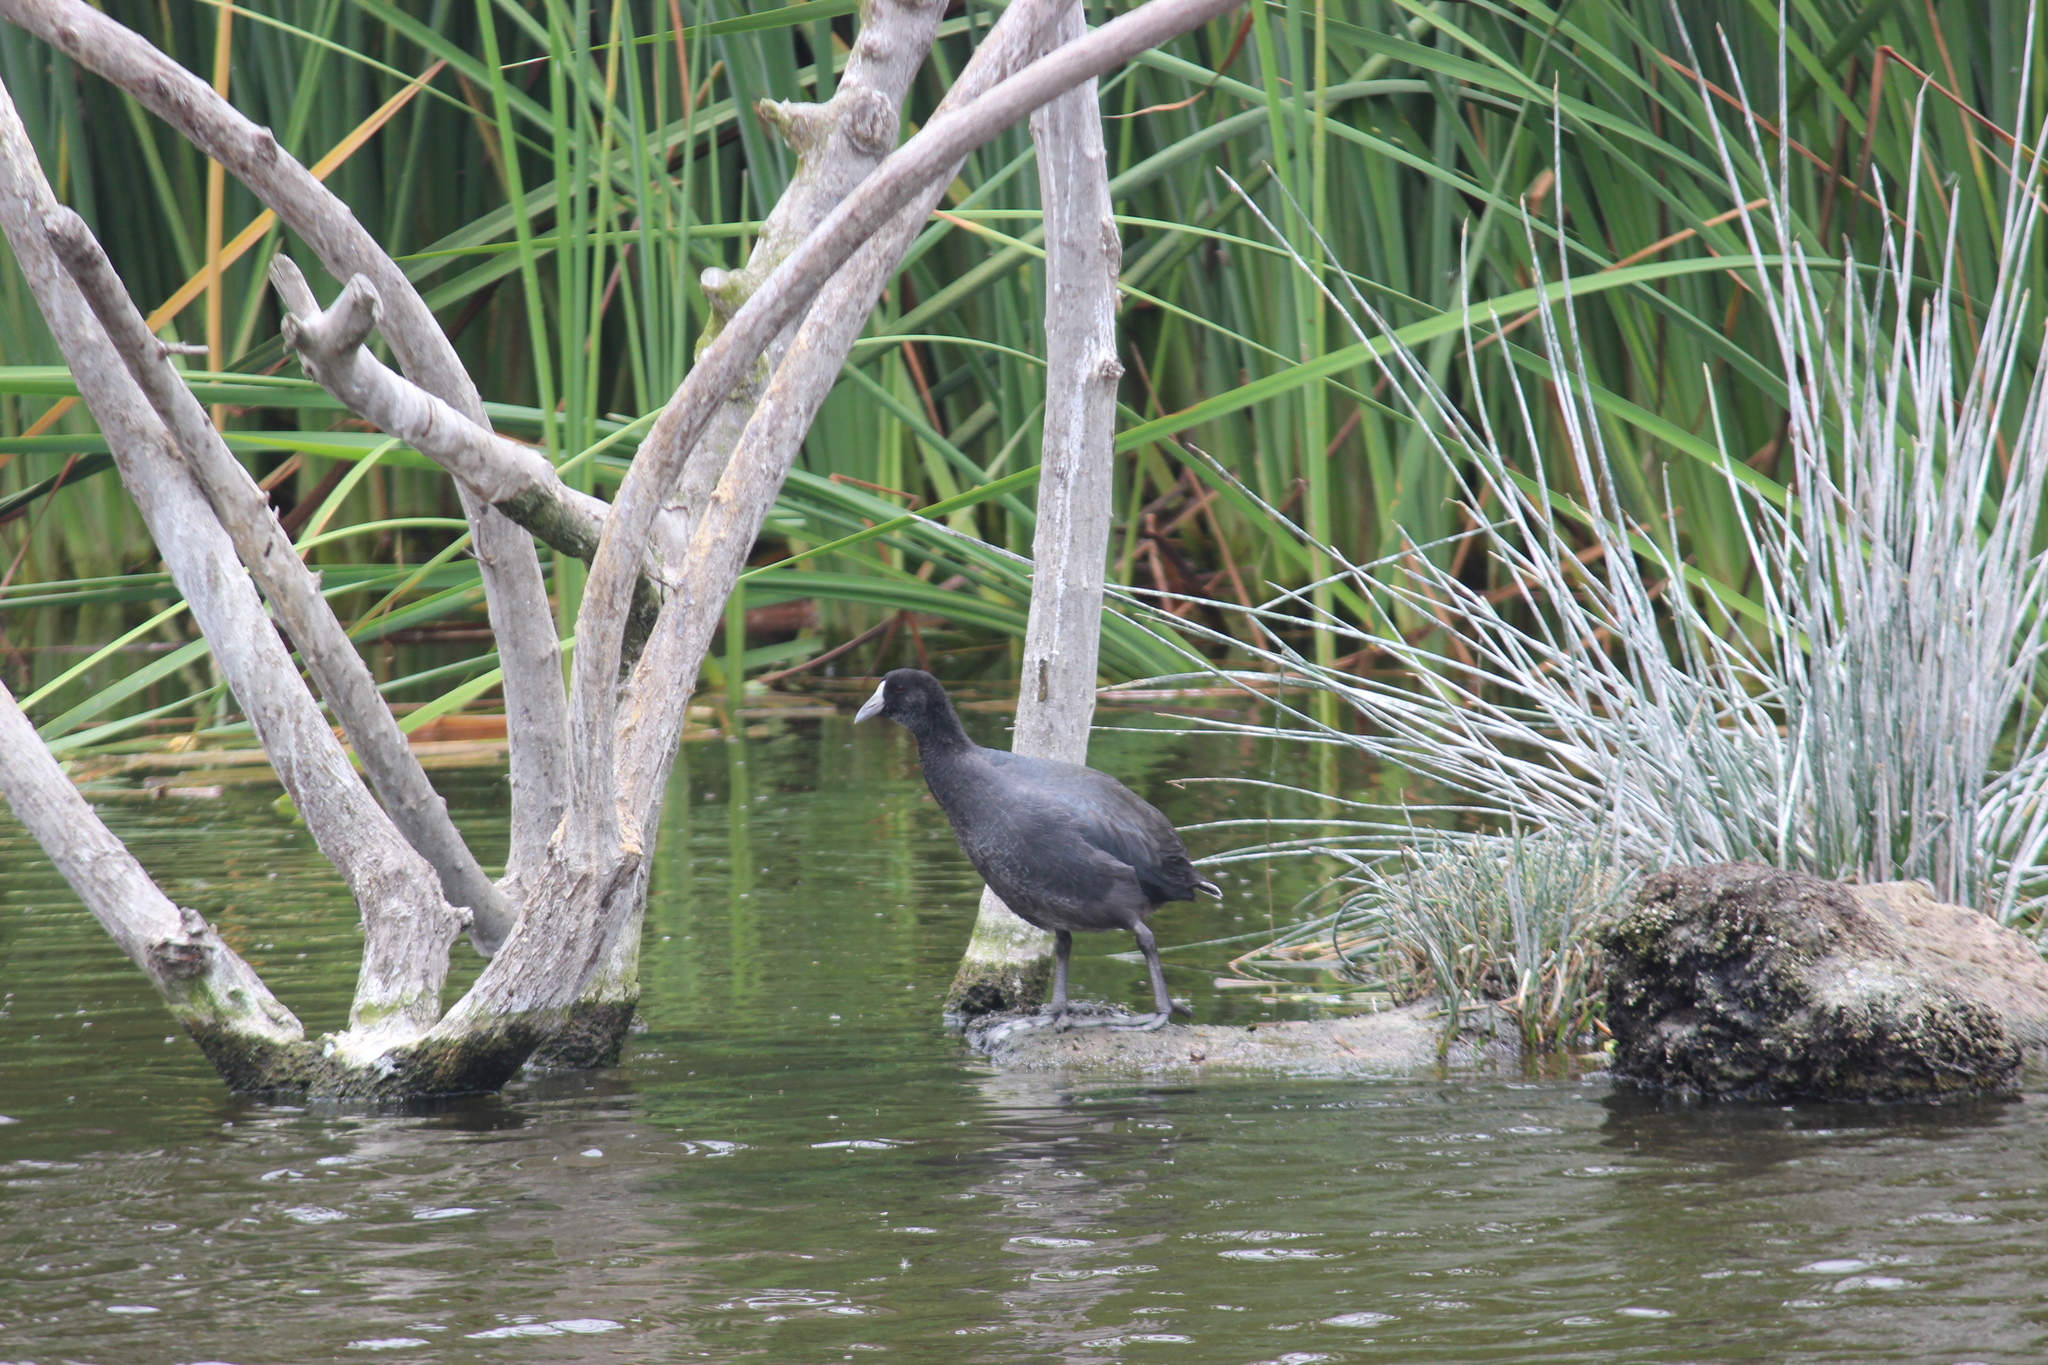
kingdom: Animalia
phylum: Chordata
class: Aves
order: Gruiformes
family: Rallidae
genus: Fulica
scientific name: Fulica ardesiaca
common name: Andean coot
